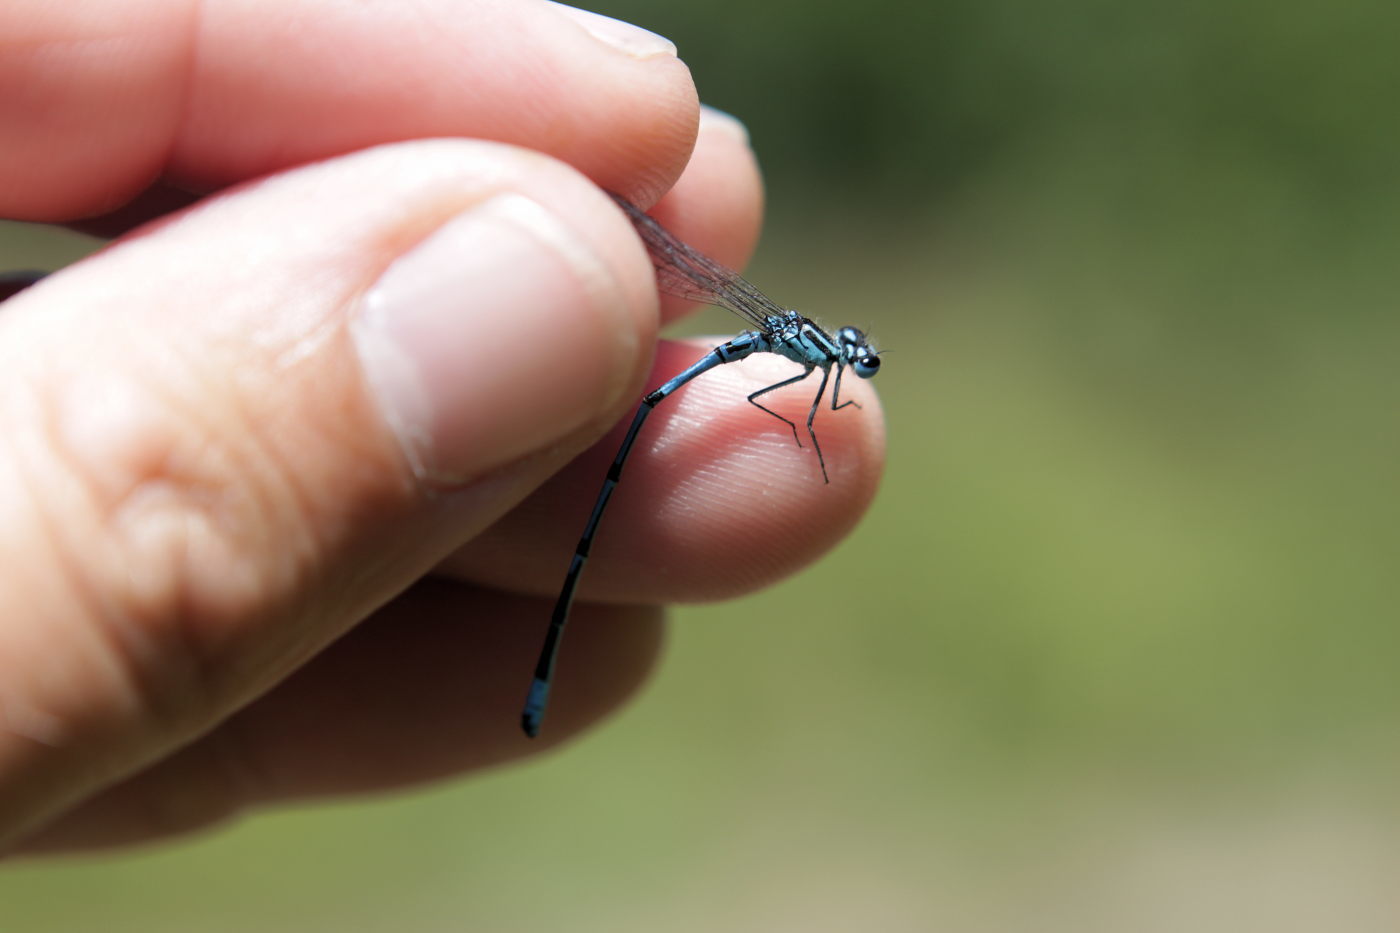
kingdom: Animalia
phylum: Arthropoda
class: Insecta
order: Odonata
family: Coenagrionidae
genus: Coenagrion
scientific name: Coenagrion puella
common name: Azure damselfly
